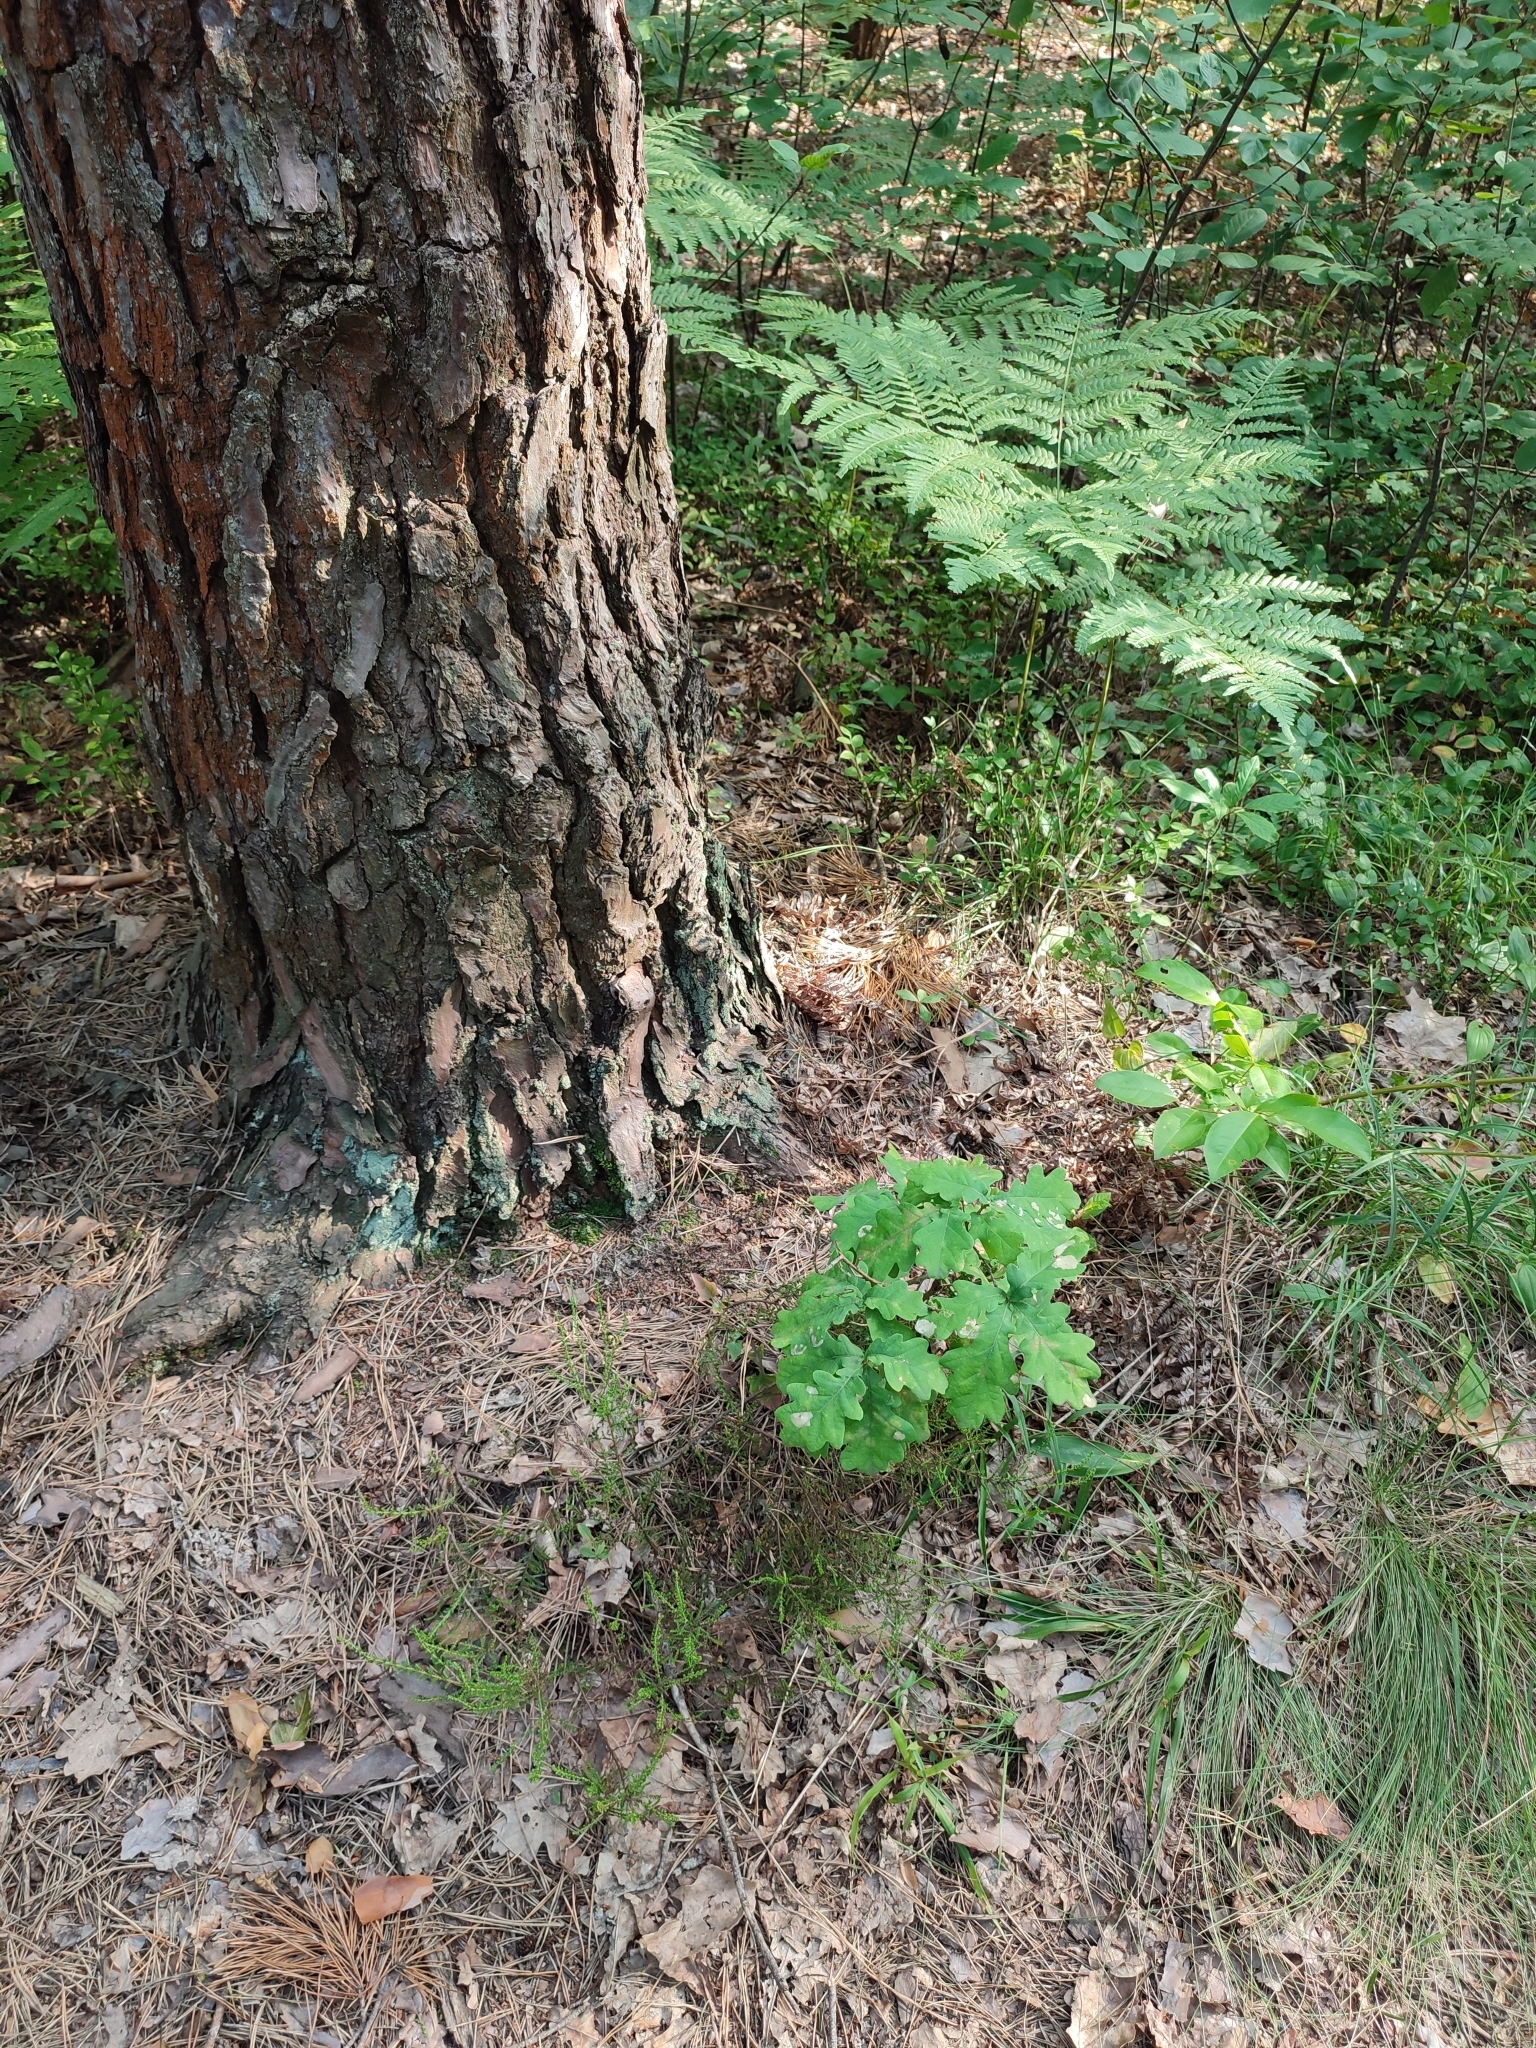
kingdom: Plantae
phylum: Tracheophyta
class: Magnoliopsida
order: Fagales
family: Fagaceae
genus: Quercus
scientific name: Quercus robur
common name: Pedunculate oak
